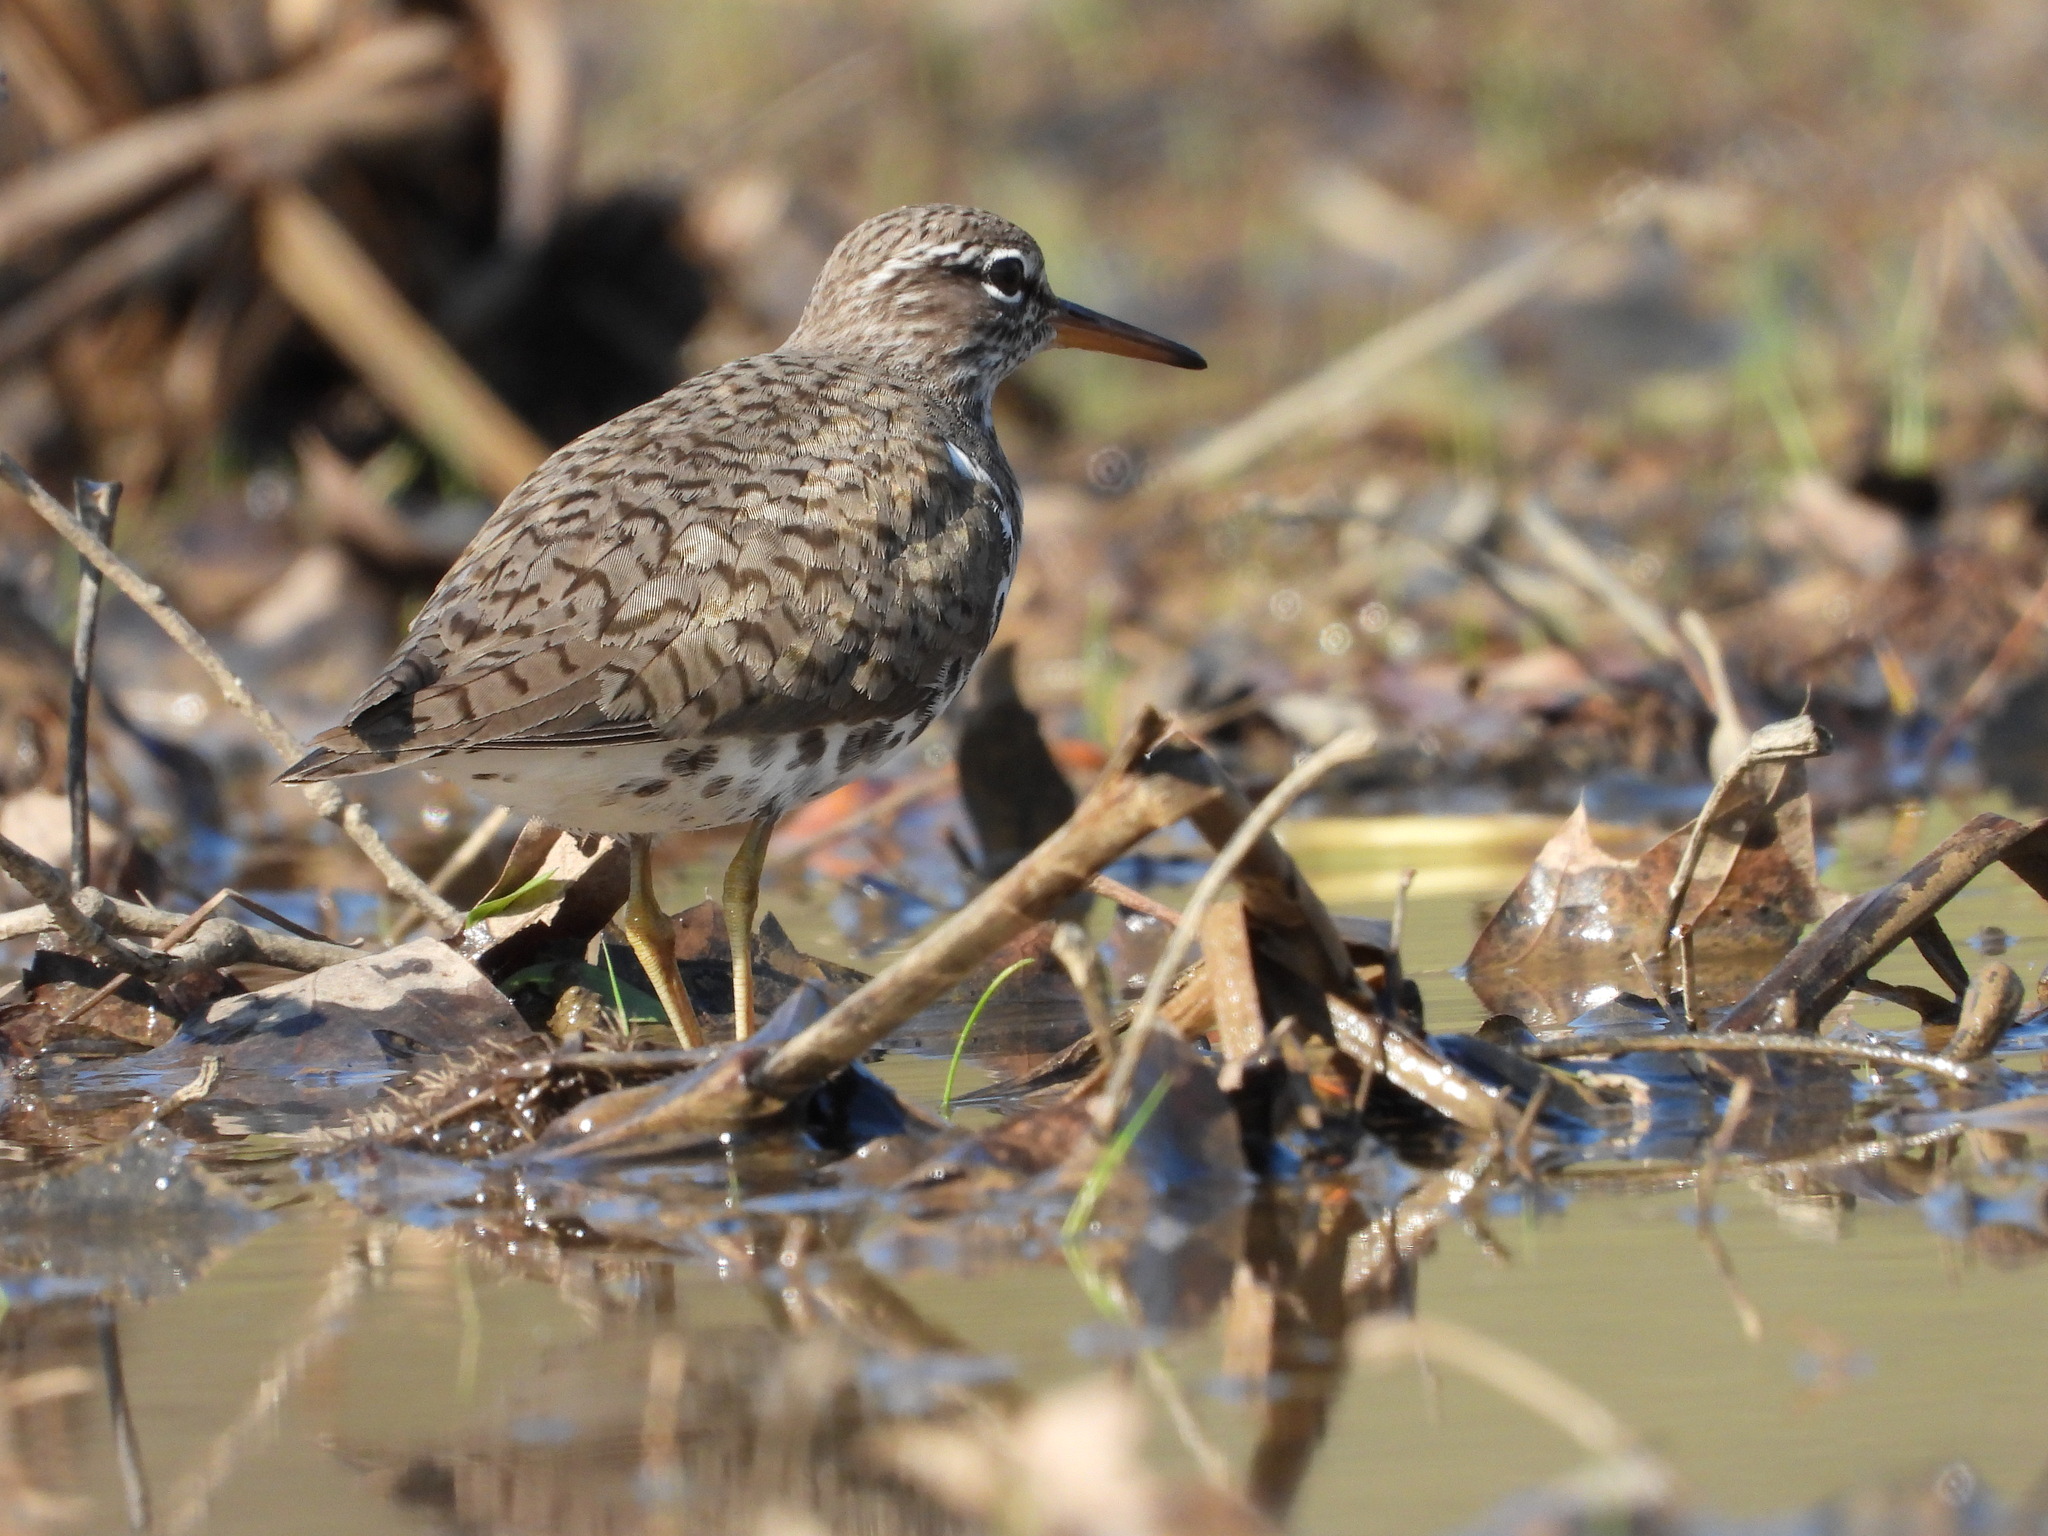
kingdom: Animalia
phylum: Chordata
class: Aves
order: Charadriiformes
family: Scolopacidae
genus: Actitis
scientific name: Actitis macularius
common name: Spotted sandpiper
